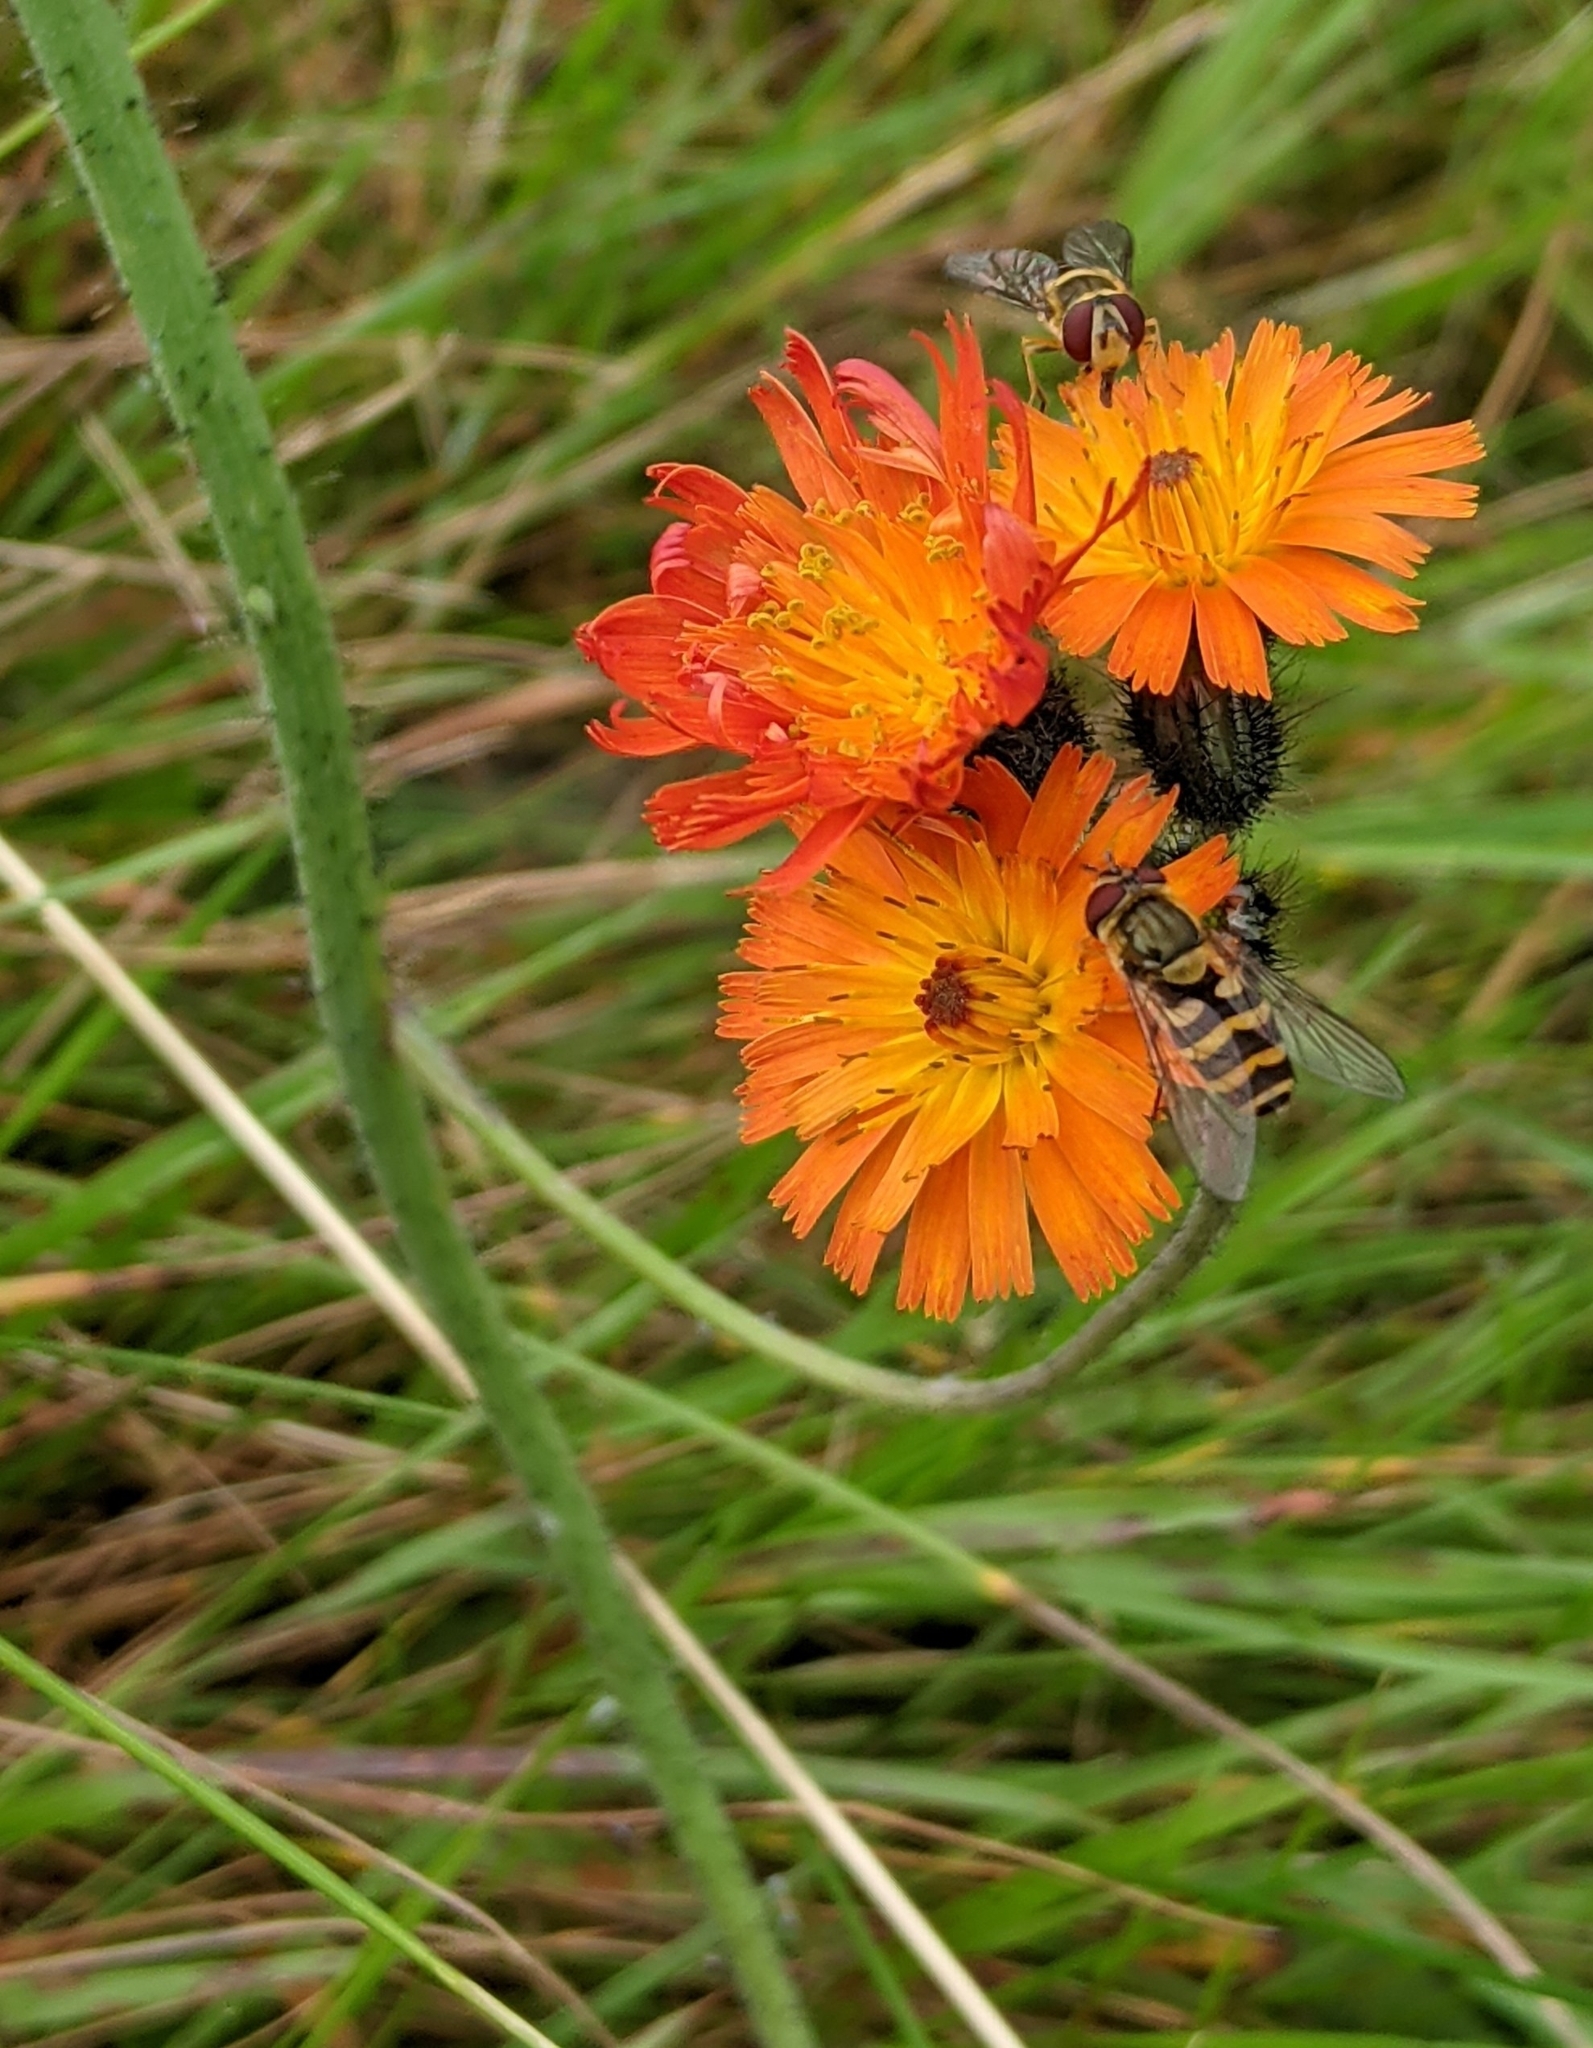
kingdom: Plantae
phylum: Tracheophyta
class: Magnoliopsida
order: Asterales
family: Asteraceae
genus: Pilosella
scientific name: Pilosella aurantiaca
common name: Fox-and-cubs
